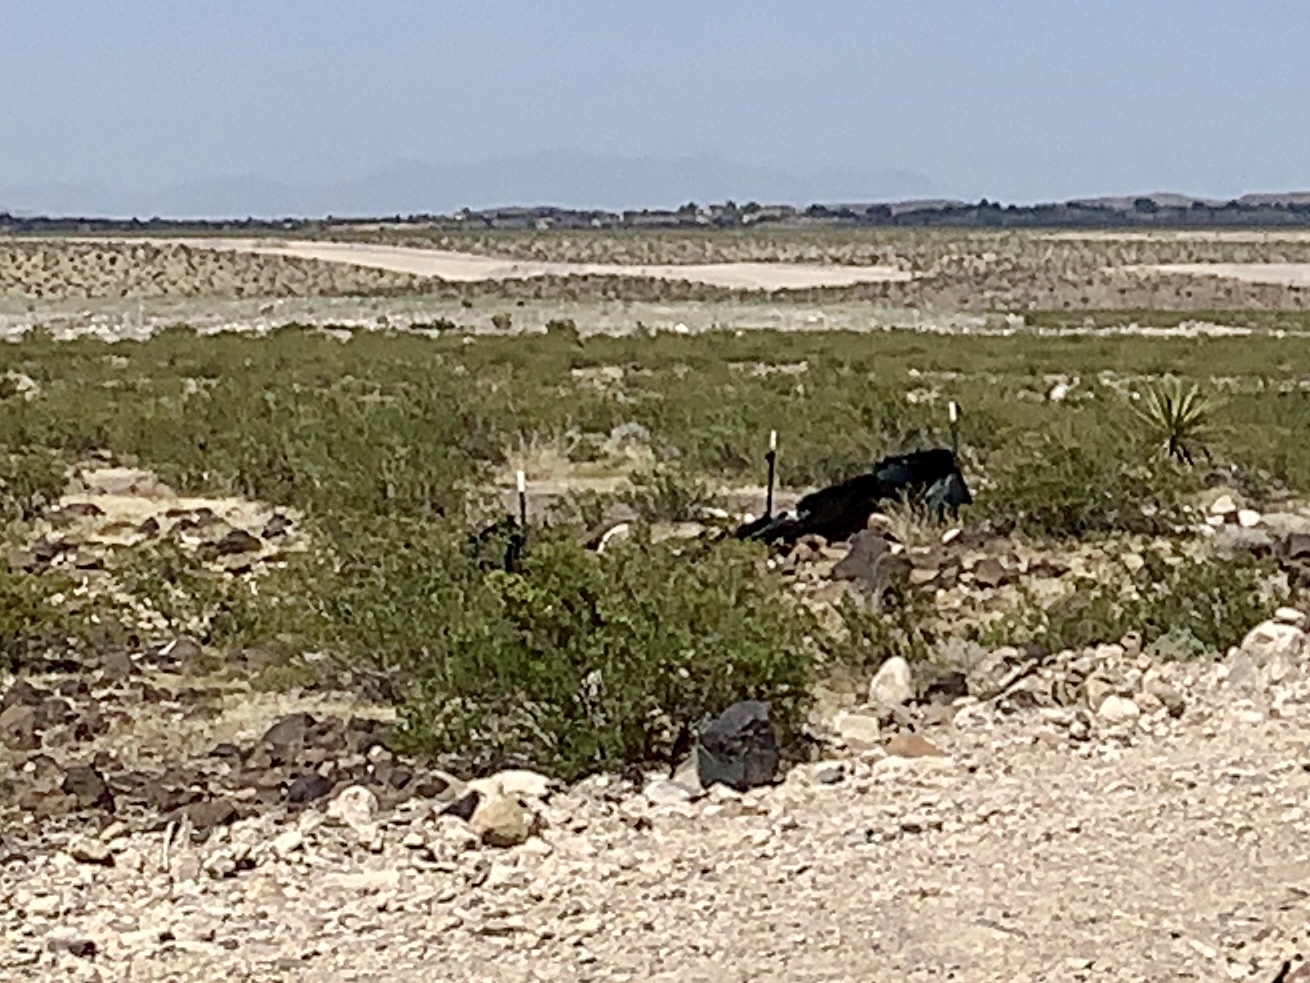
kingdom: Plantae
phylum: Tracheophyta
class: Magnoliopsida
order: Zygophyllales
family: Zygophyllaceae
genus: Larrea
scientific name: Larrea tridentata
